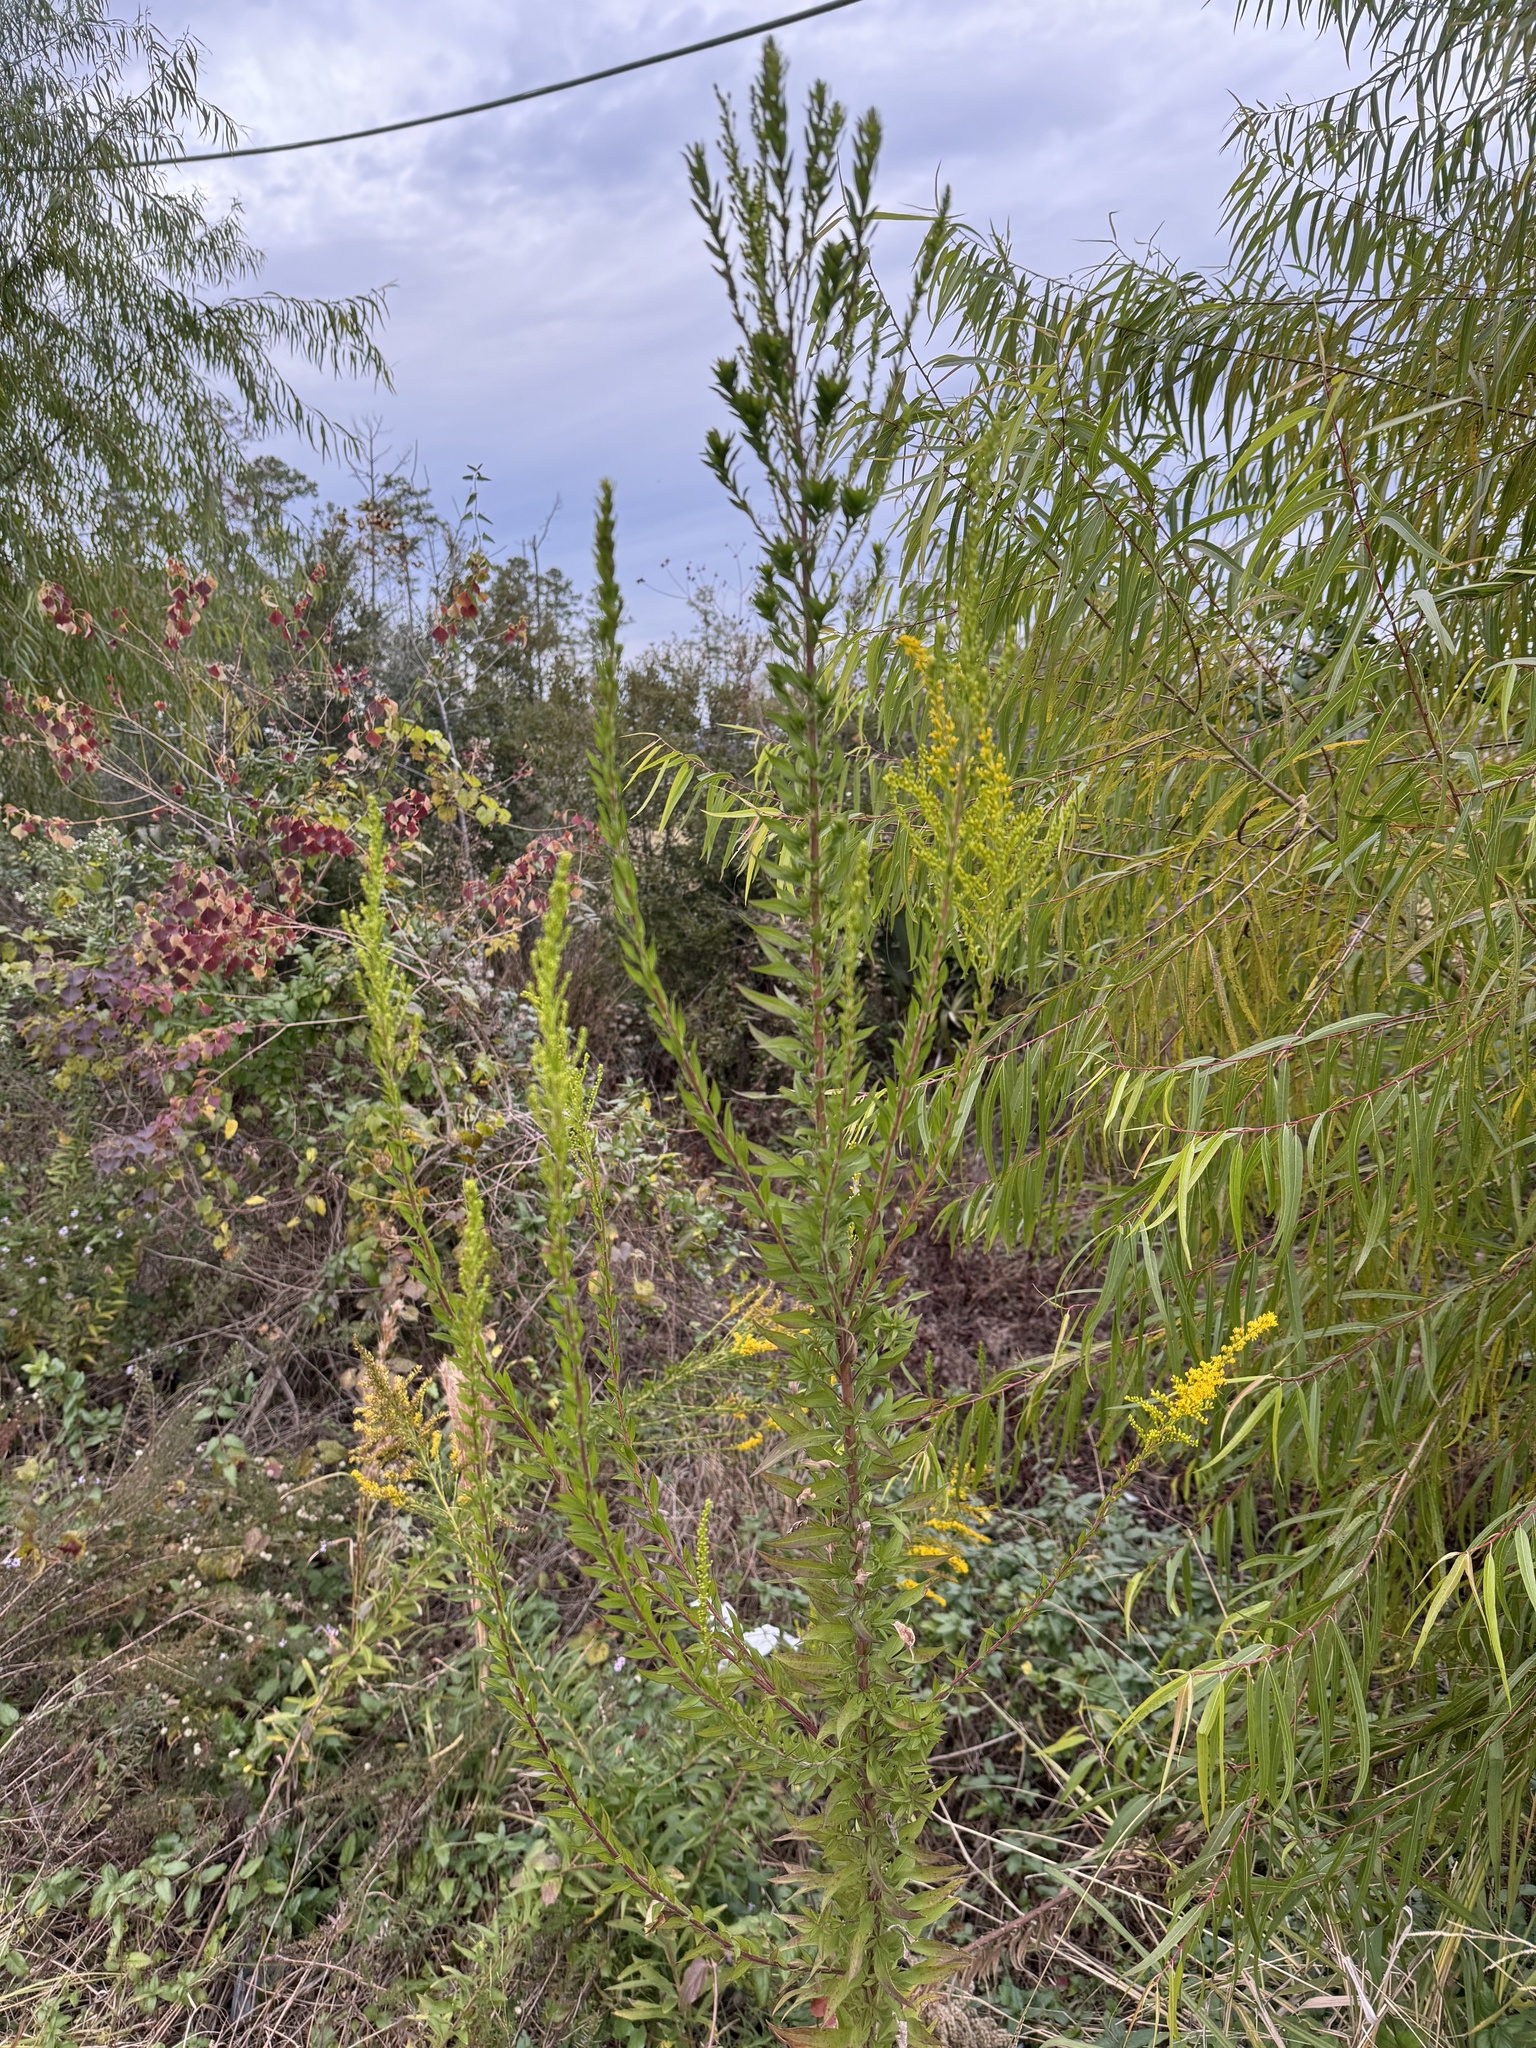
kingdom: Plantae
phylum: Tracheophyta
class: Magnoliopsida
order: Asterales
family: Asteraceae
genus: Solidago
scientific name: Solidago altissima
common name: Late goldenrod
